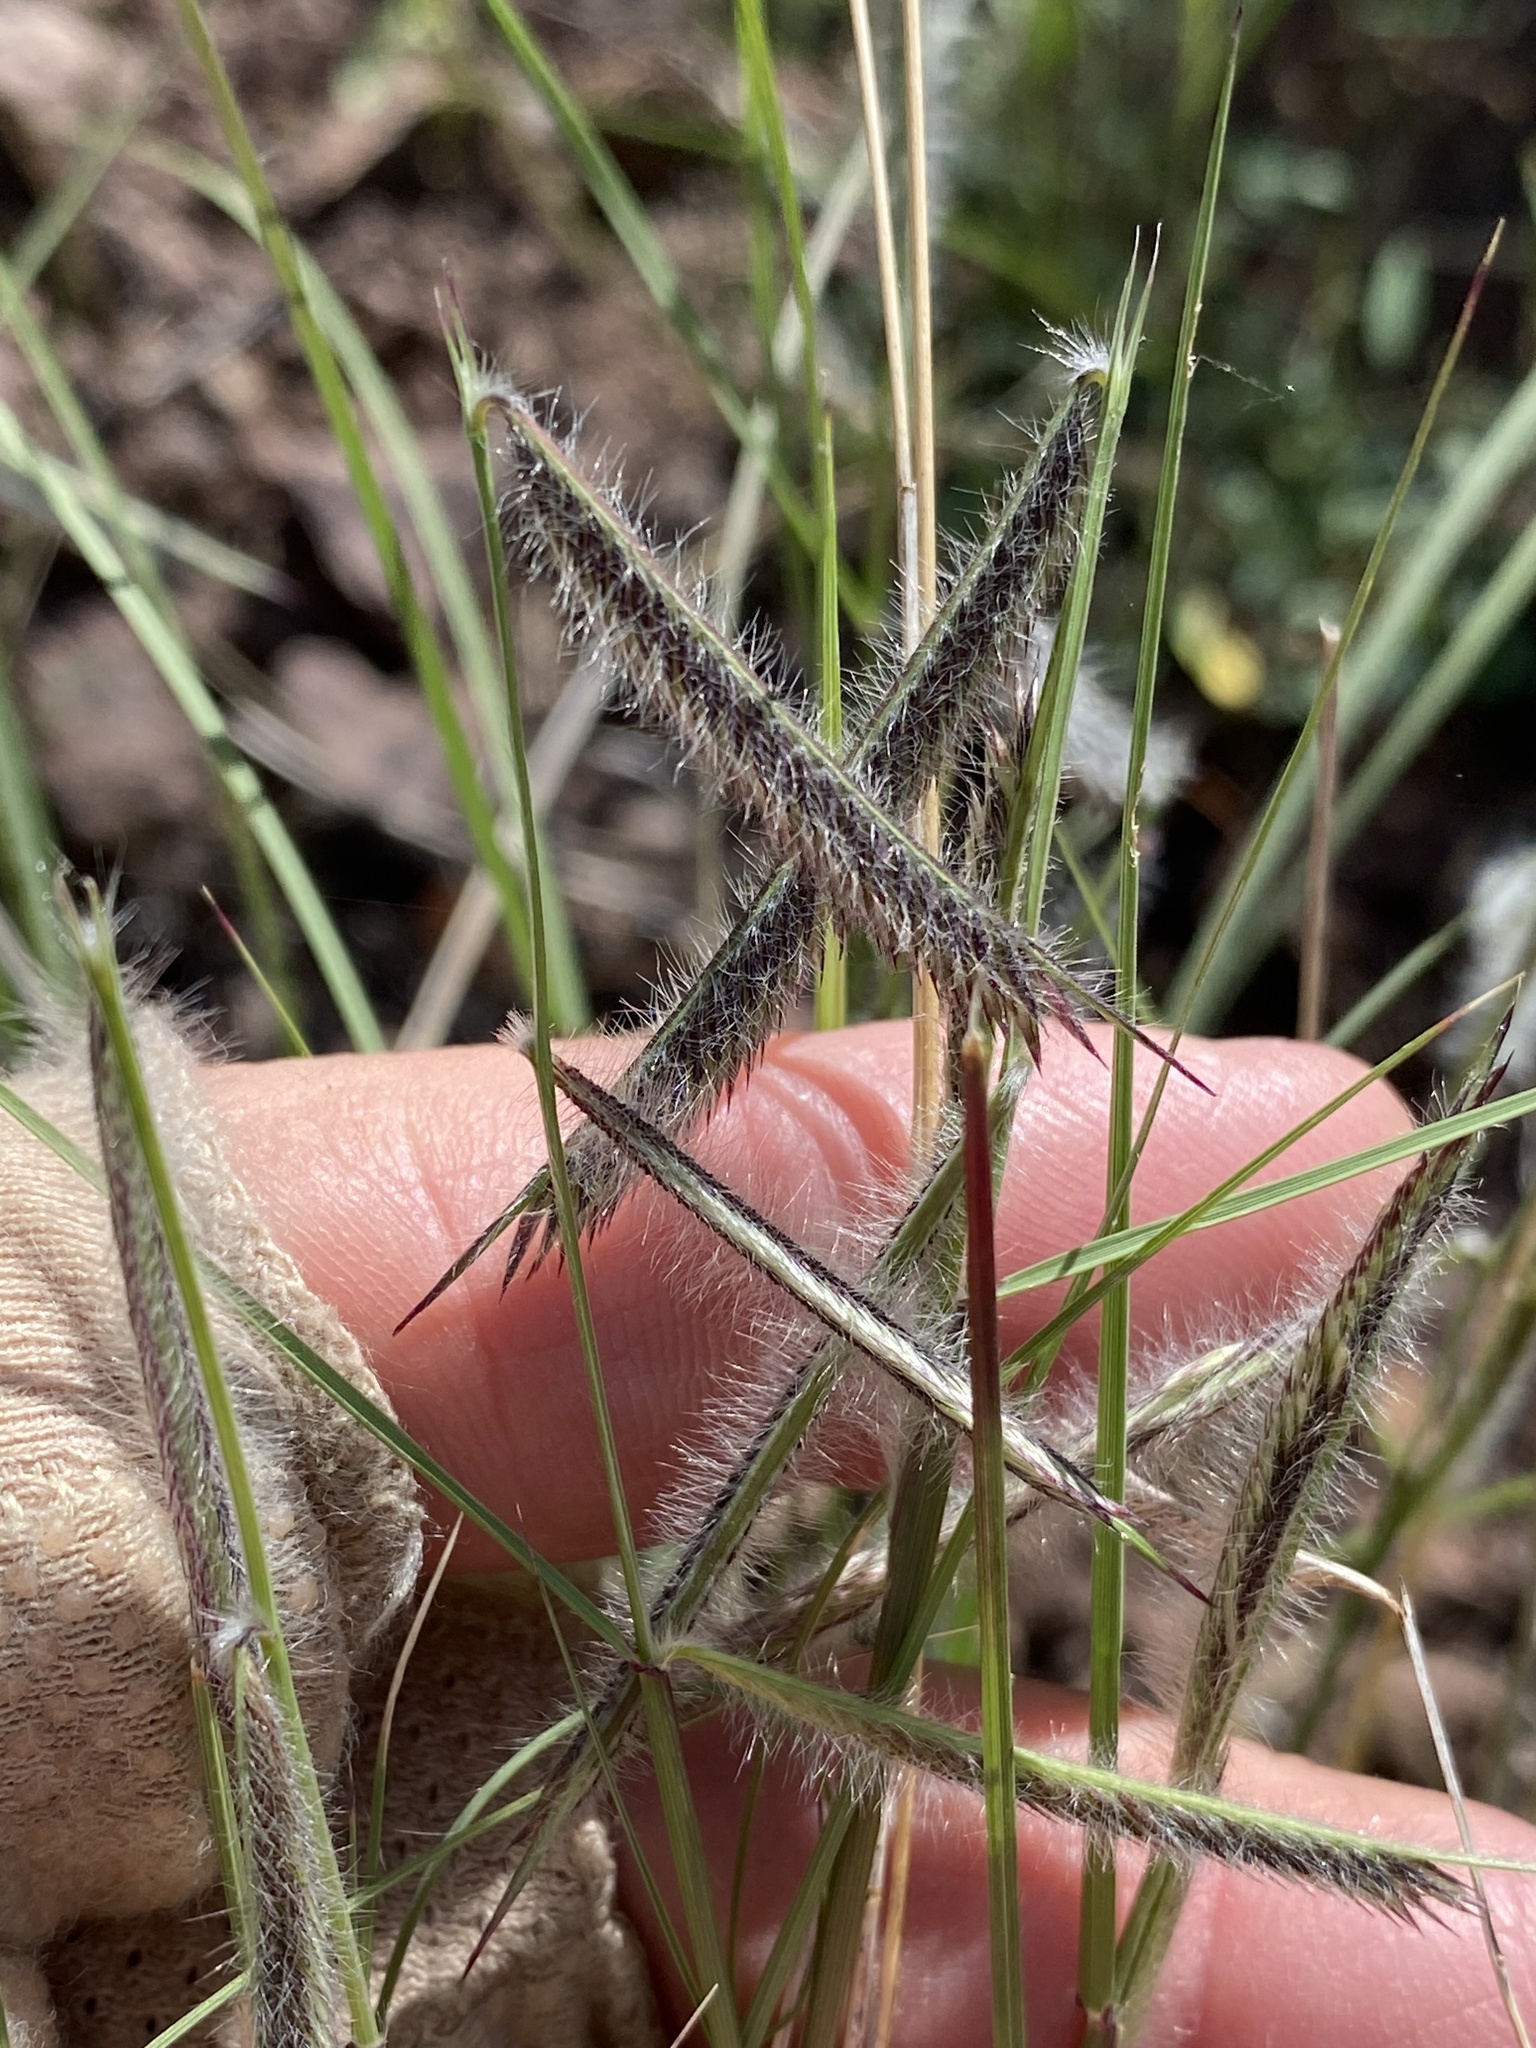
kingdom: Plantae
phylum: Tracheophyta
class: Liliopsida
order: Poales
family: Poaceae
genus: Bouteloua
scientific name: Bouteloua hirsuta
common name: Hairy grama
